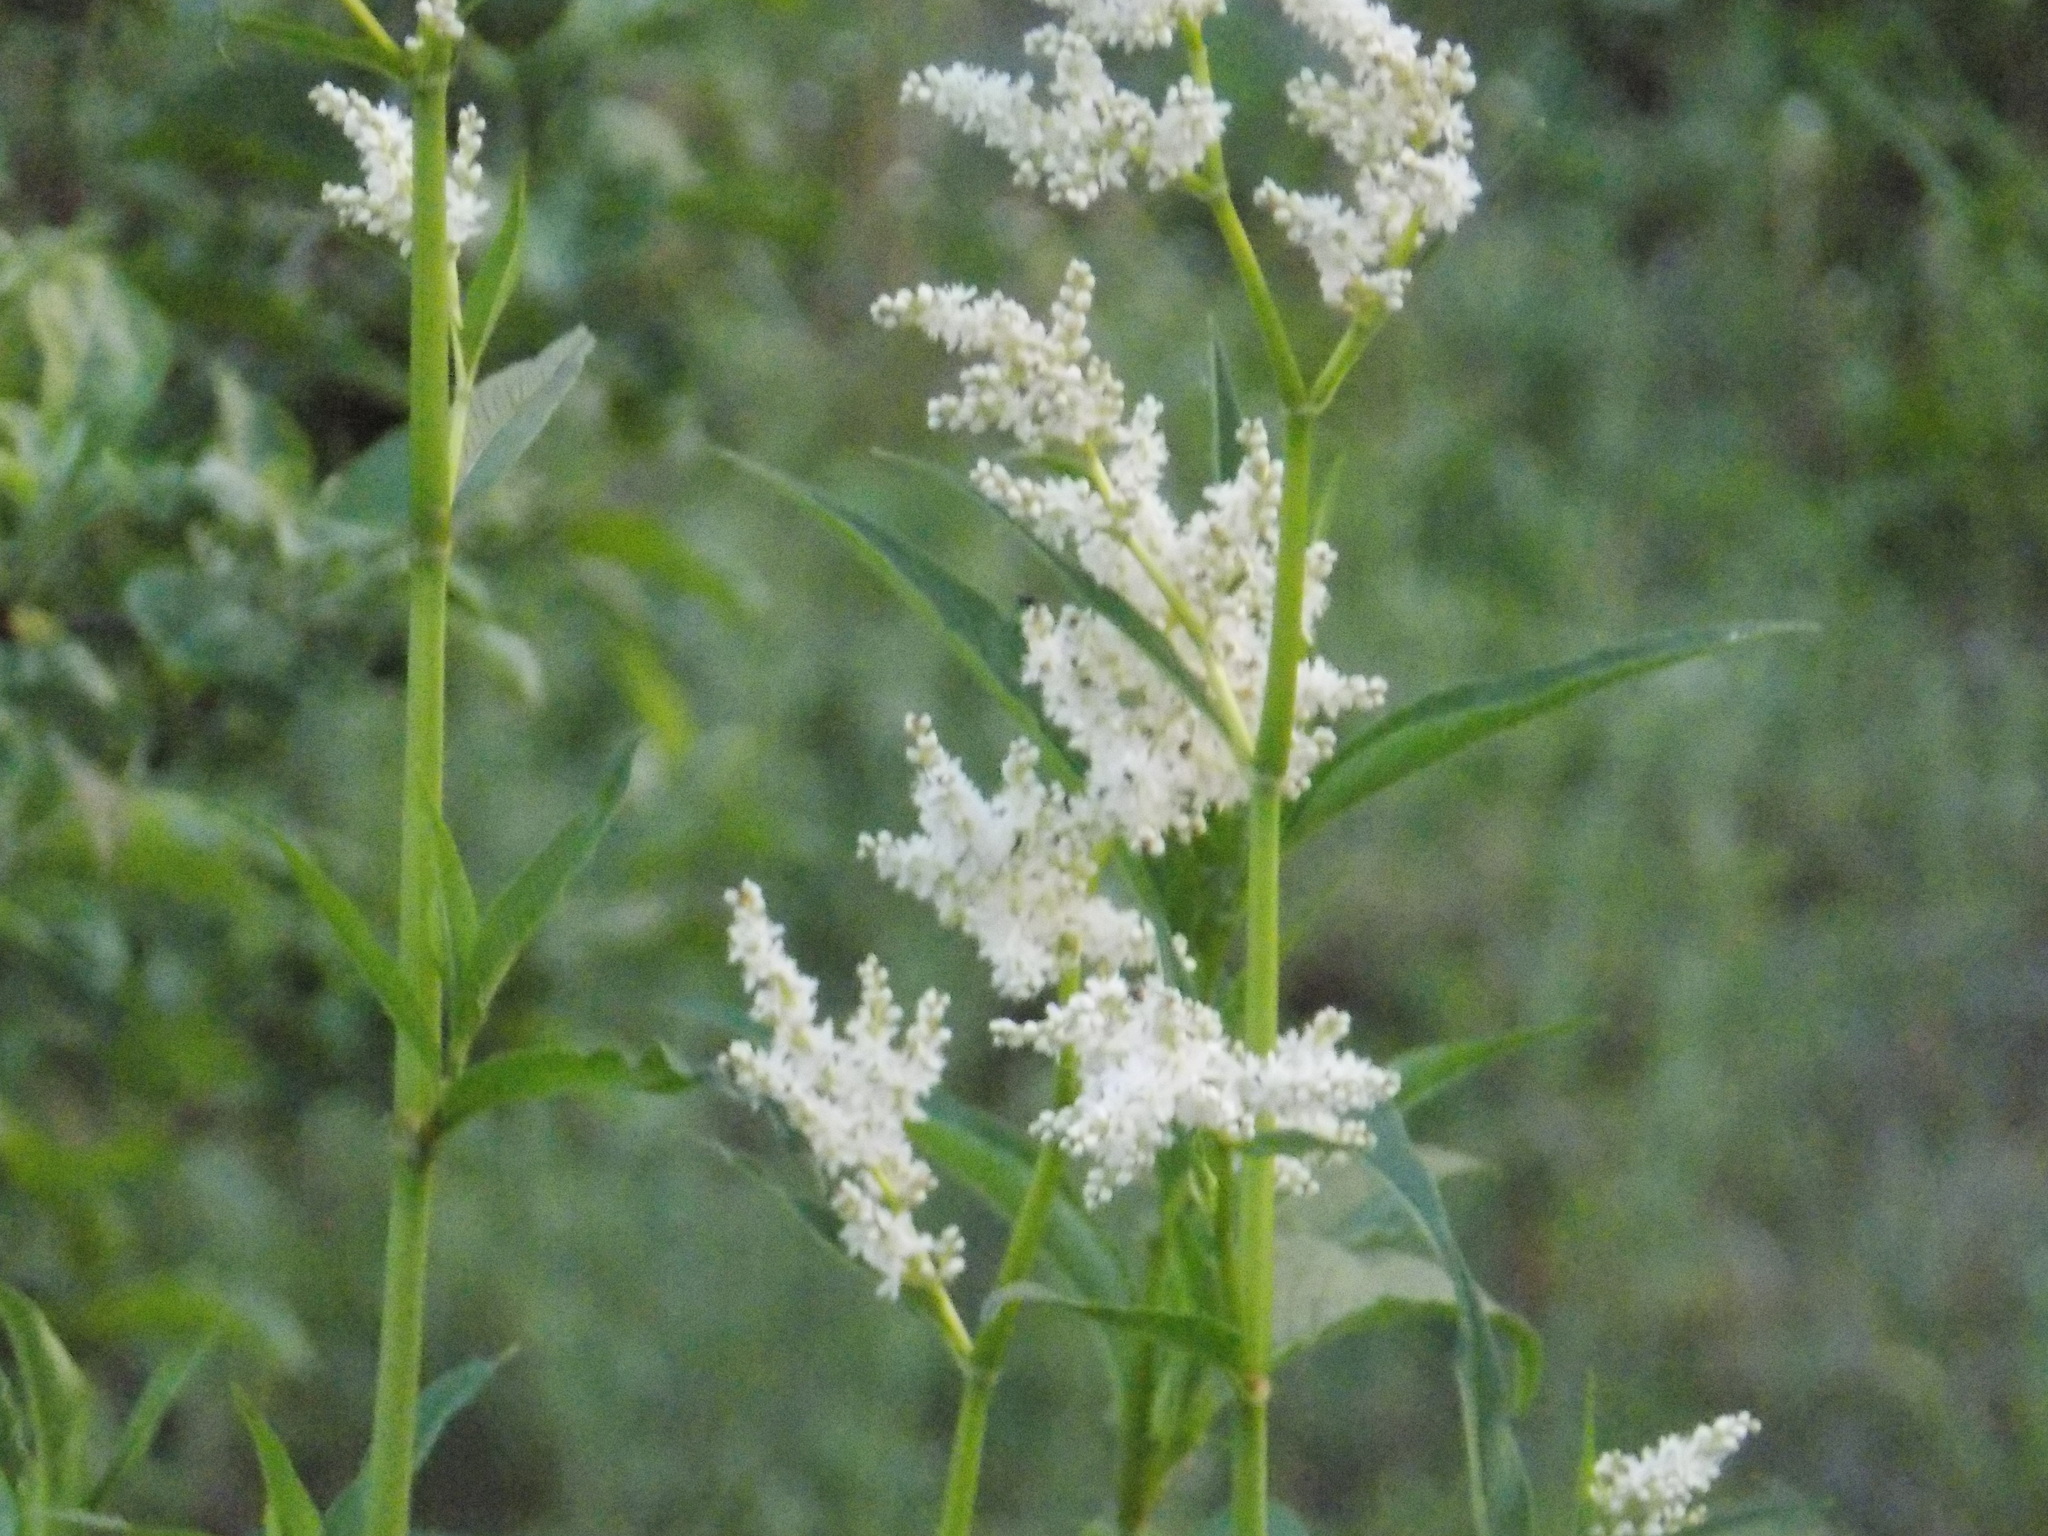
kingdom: Plantae
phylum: Tracheophyta
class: Magnoliopsida
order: Caryophyllales
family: Polygonaceae
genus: Koenigia
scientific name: Koenigia alpina
